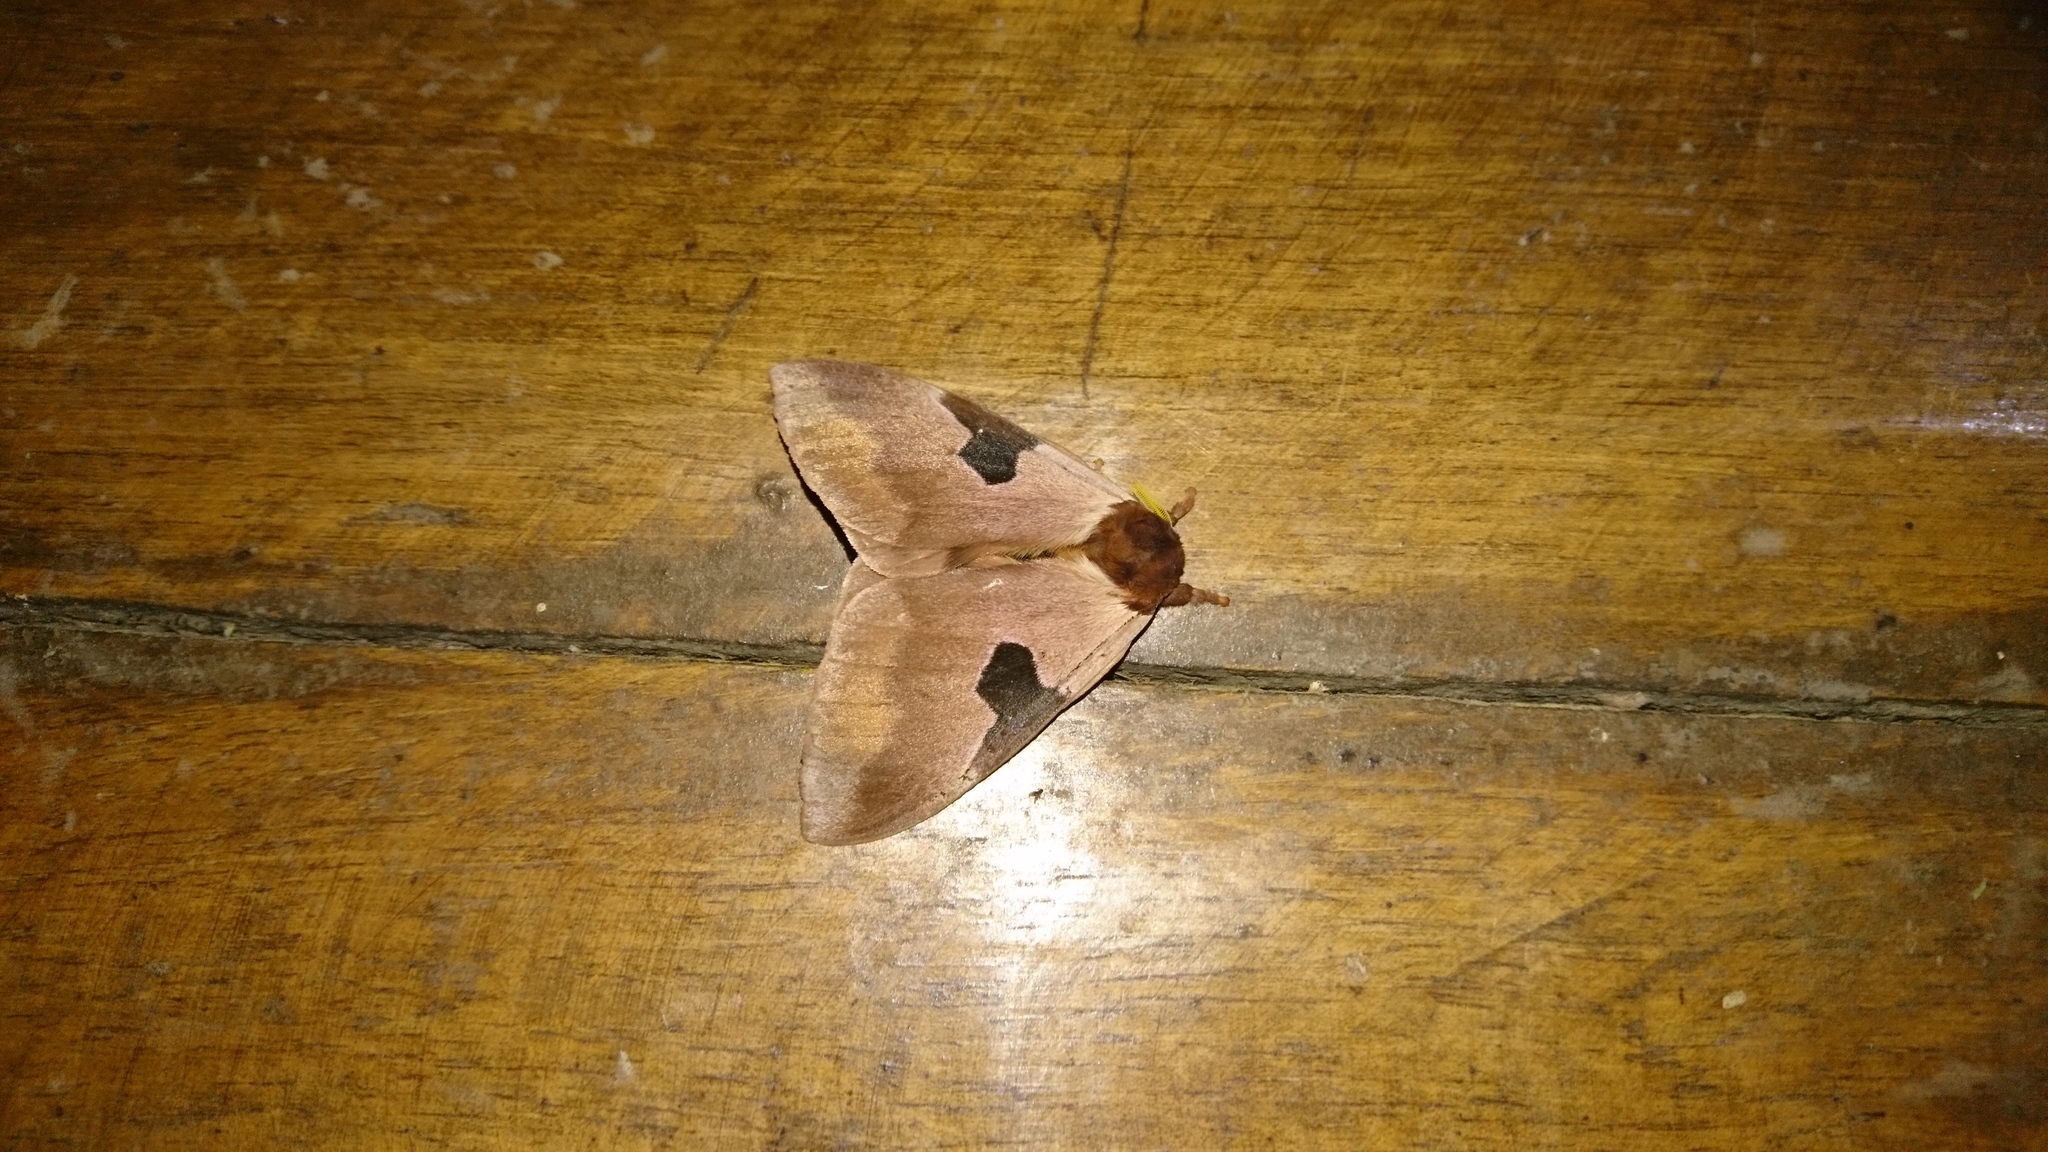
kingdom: Animalia
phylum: Arthropoda
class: Insecta
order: Lepidoptera
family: Saturniidae
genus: Dirphia
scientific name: Dirphia
